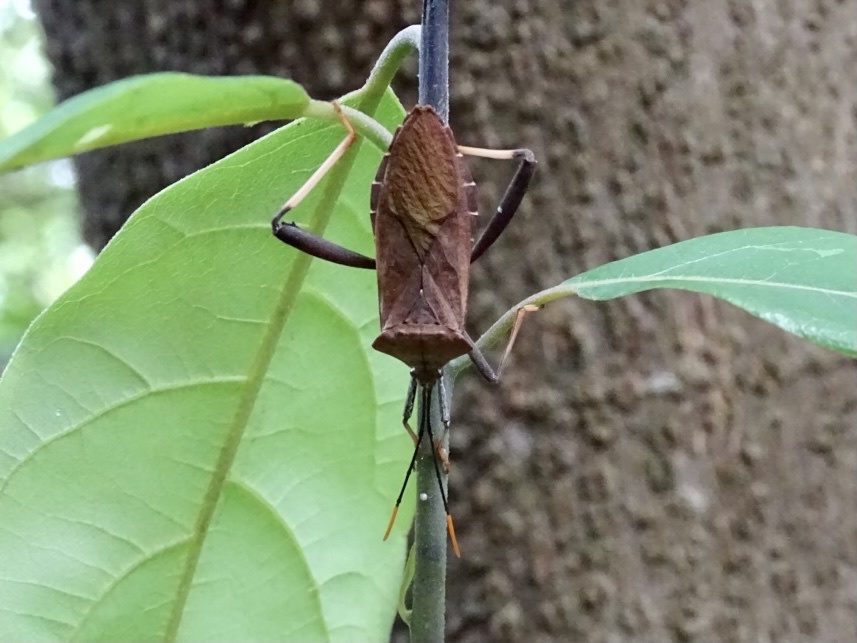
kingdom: Animalia
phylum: Arthropoda
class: Insecta
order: Hemiptera
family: Coreidae
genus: Mictis
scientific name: Mictis serina
